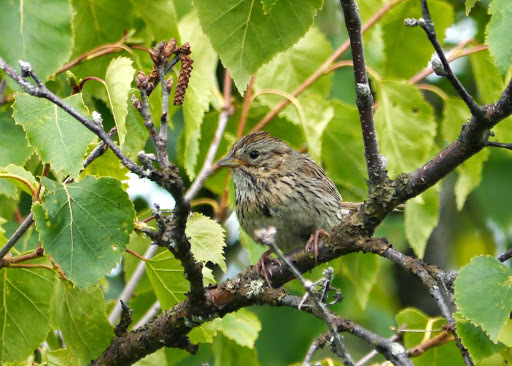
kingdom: Animalia
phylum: Chordata
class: Aves
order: Passeriformes
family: Passerellidae
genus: Melospiza
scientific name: Melospiza lincolnii
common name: Lincoln's sparrow
